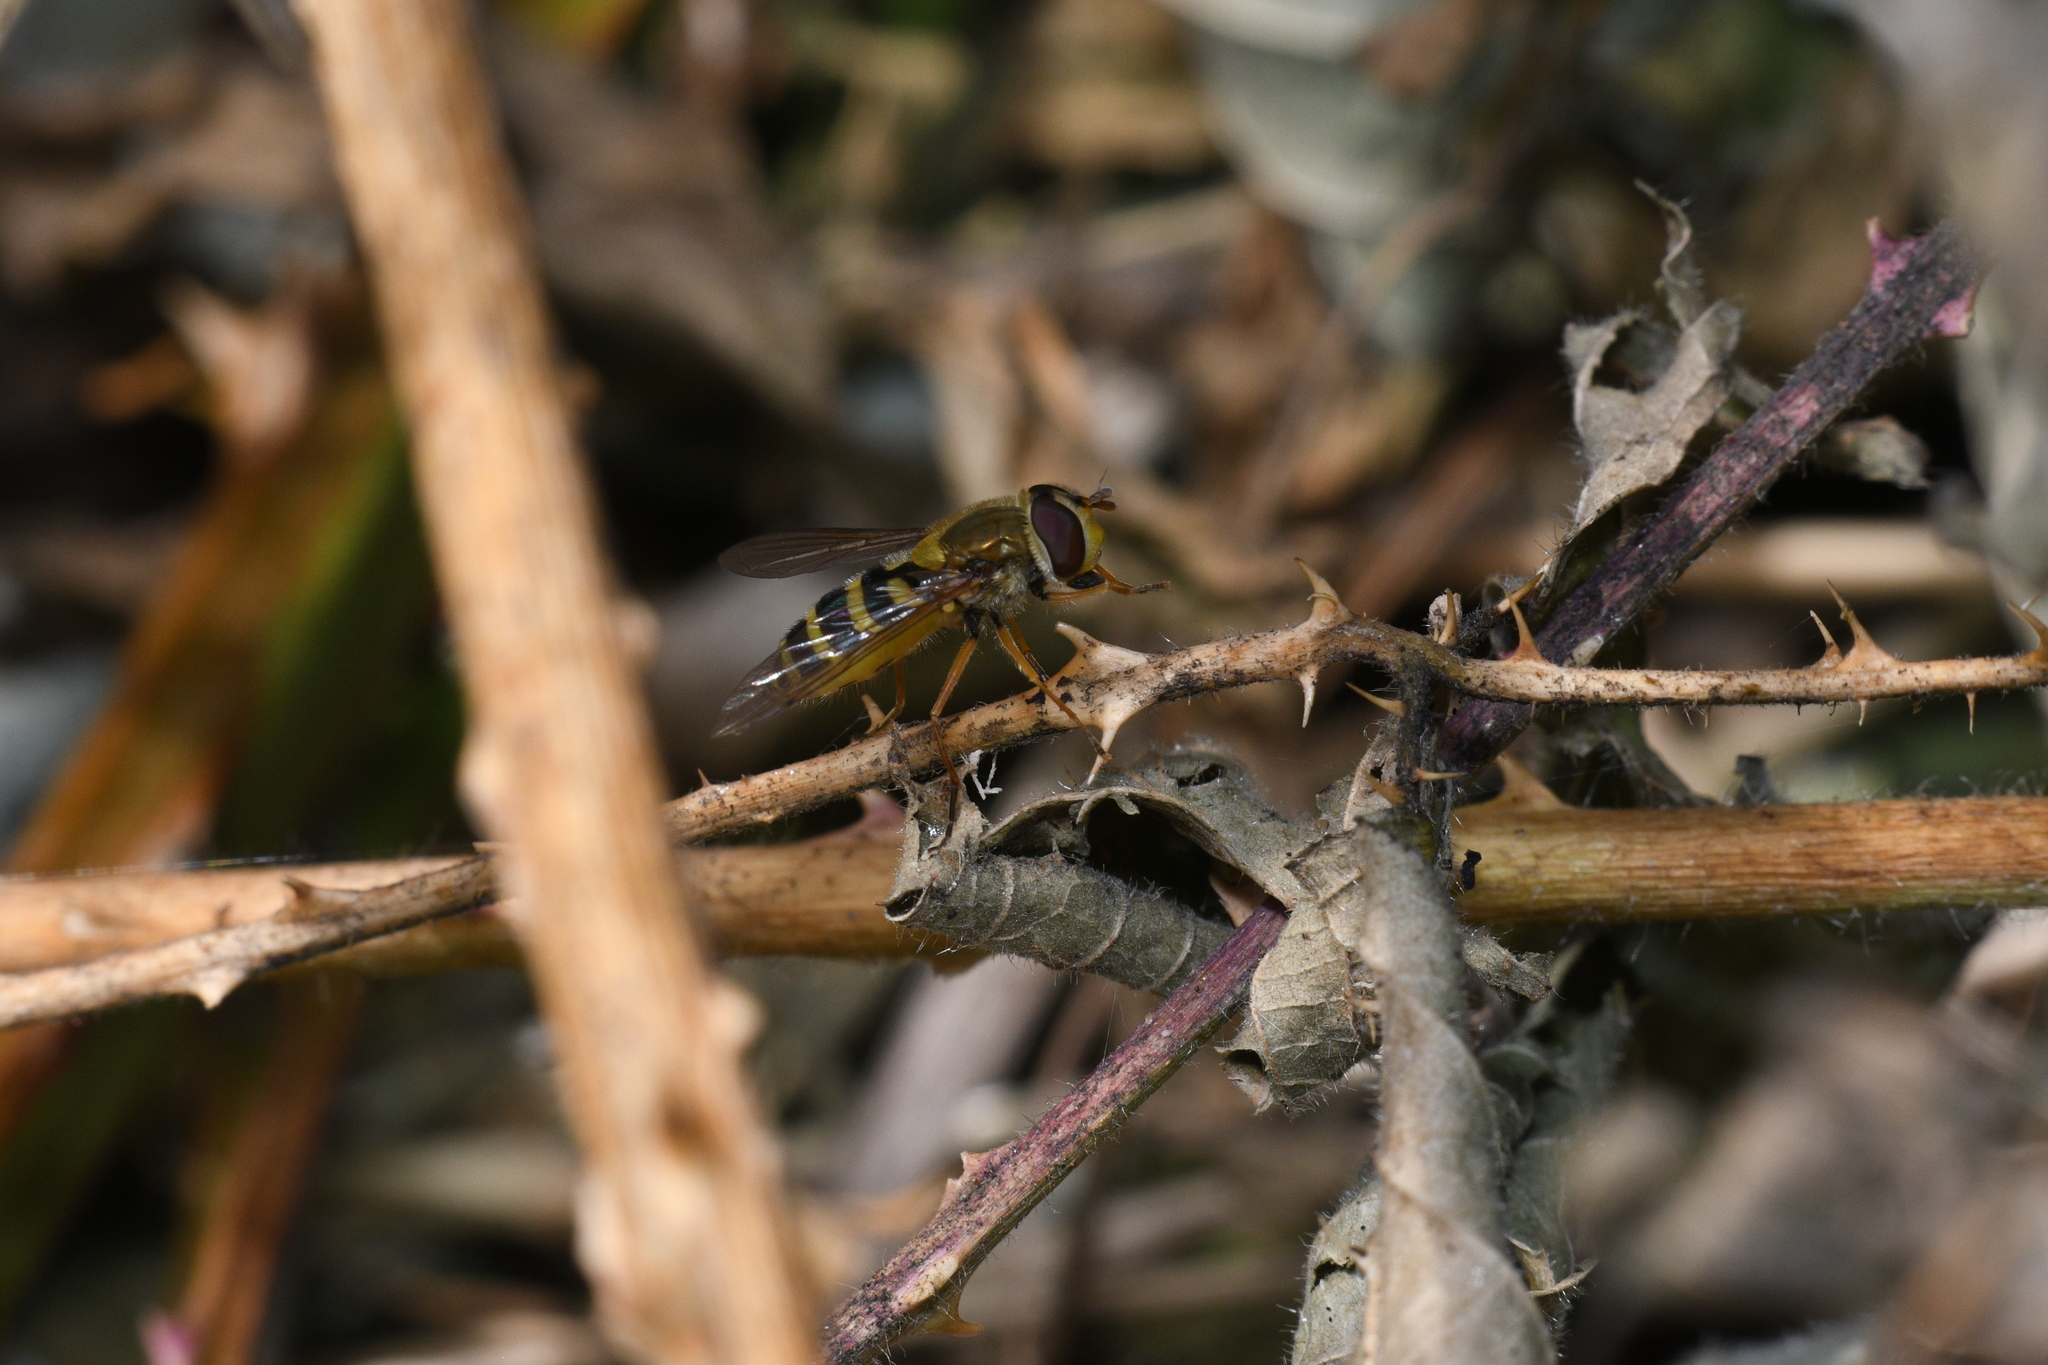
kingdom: Animalia
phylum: Arthropoda
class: Insecta
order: Diptera
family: Syrphidae
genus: Syrphus
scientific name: Syrphus ribesii
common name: Common flower fly
